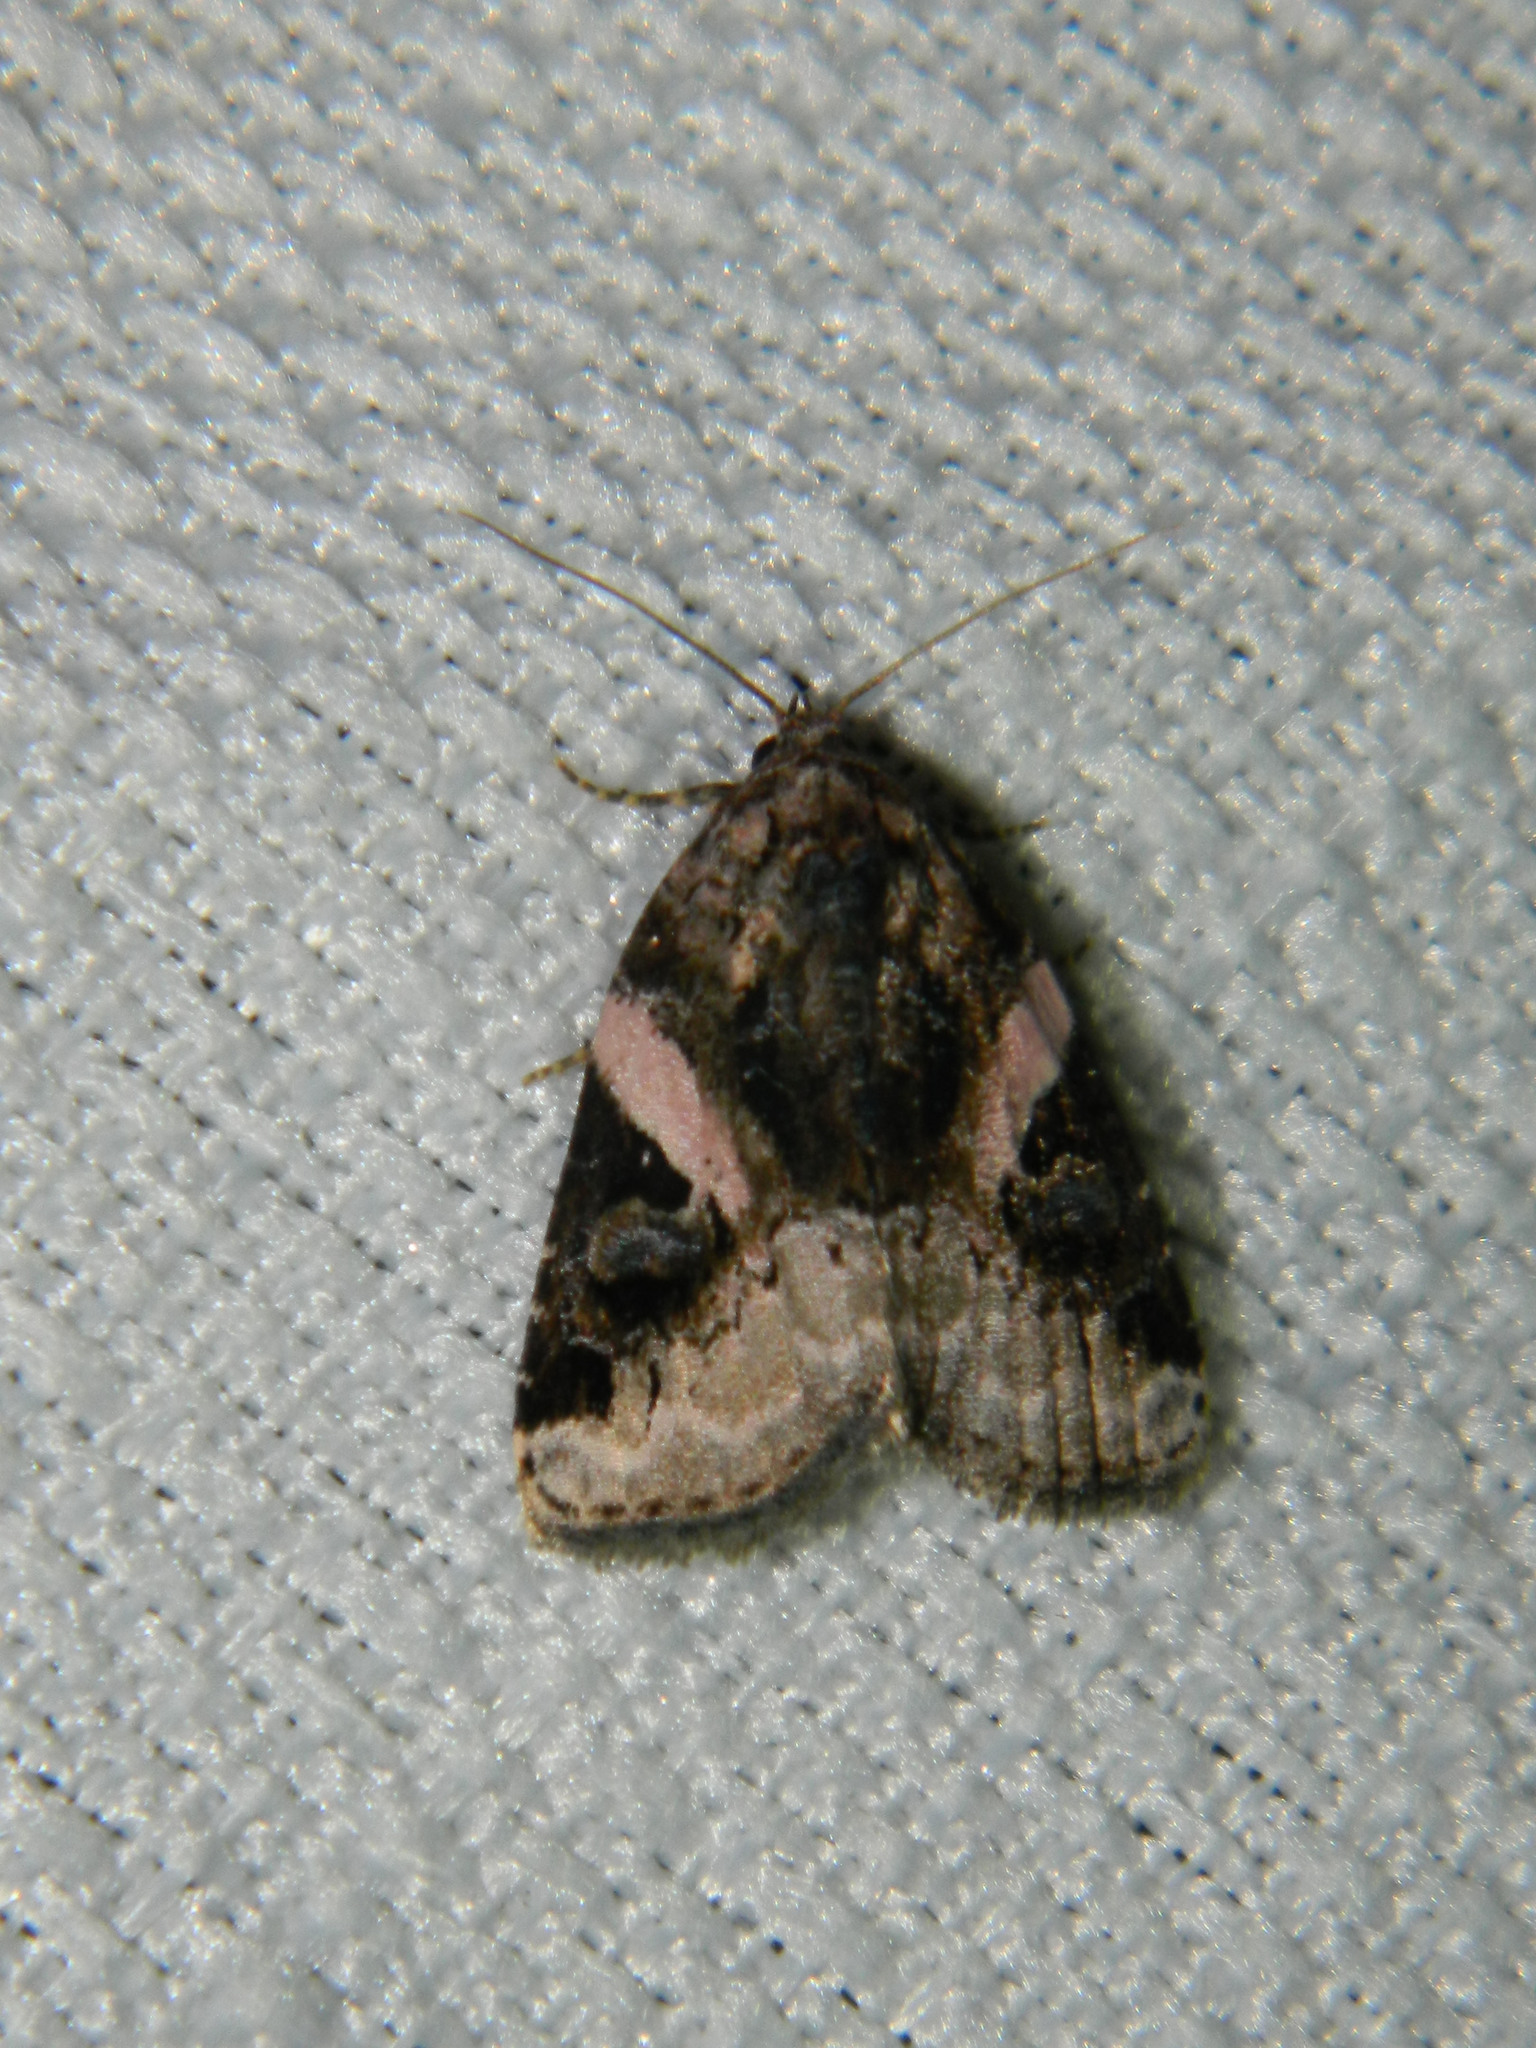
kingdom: Animalia
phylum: Arthropoda
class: Insecta
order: Lepidoptera
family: Noctuidae
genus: Pseudeustrotia
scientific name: Pseudeustrotia carneola
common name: Pink-barred lithacodia moth
